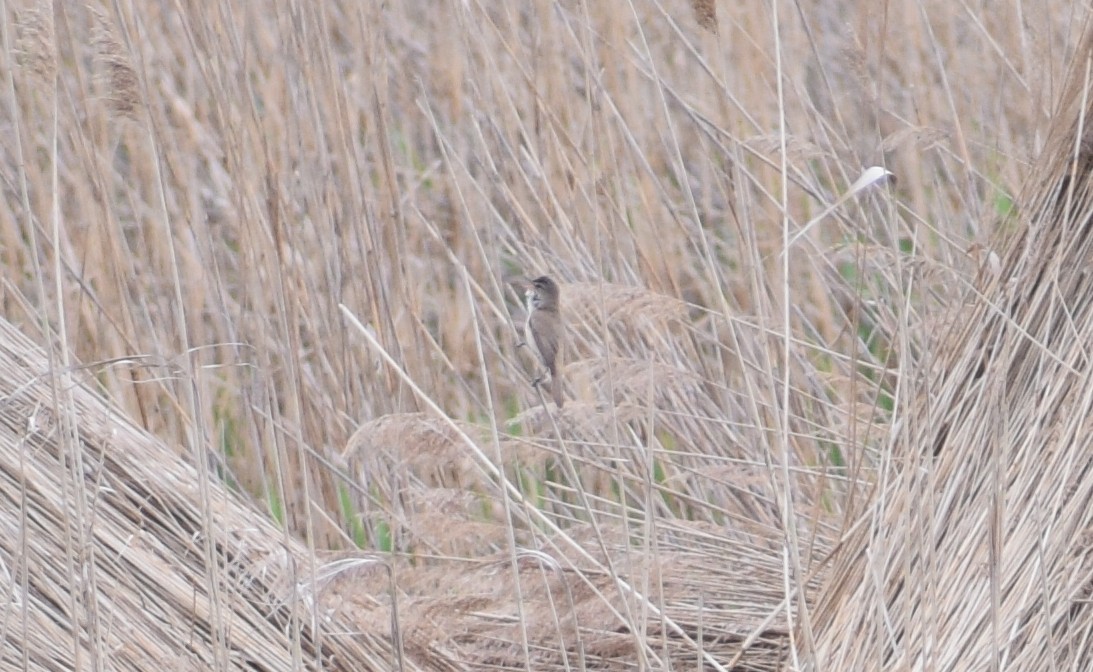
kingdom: Animalia
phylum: Chordata
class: Aves
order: Passeriformes
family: Acrocephalidae
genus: Acrocephalus
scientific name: Acrocephalus arundinaceus
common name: Great reed warbler
